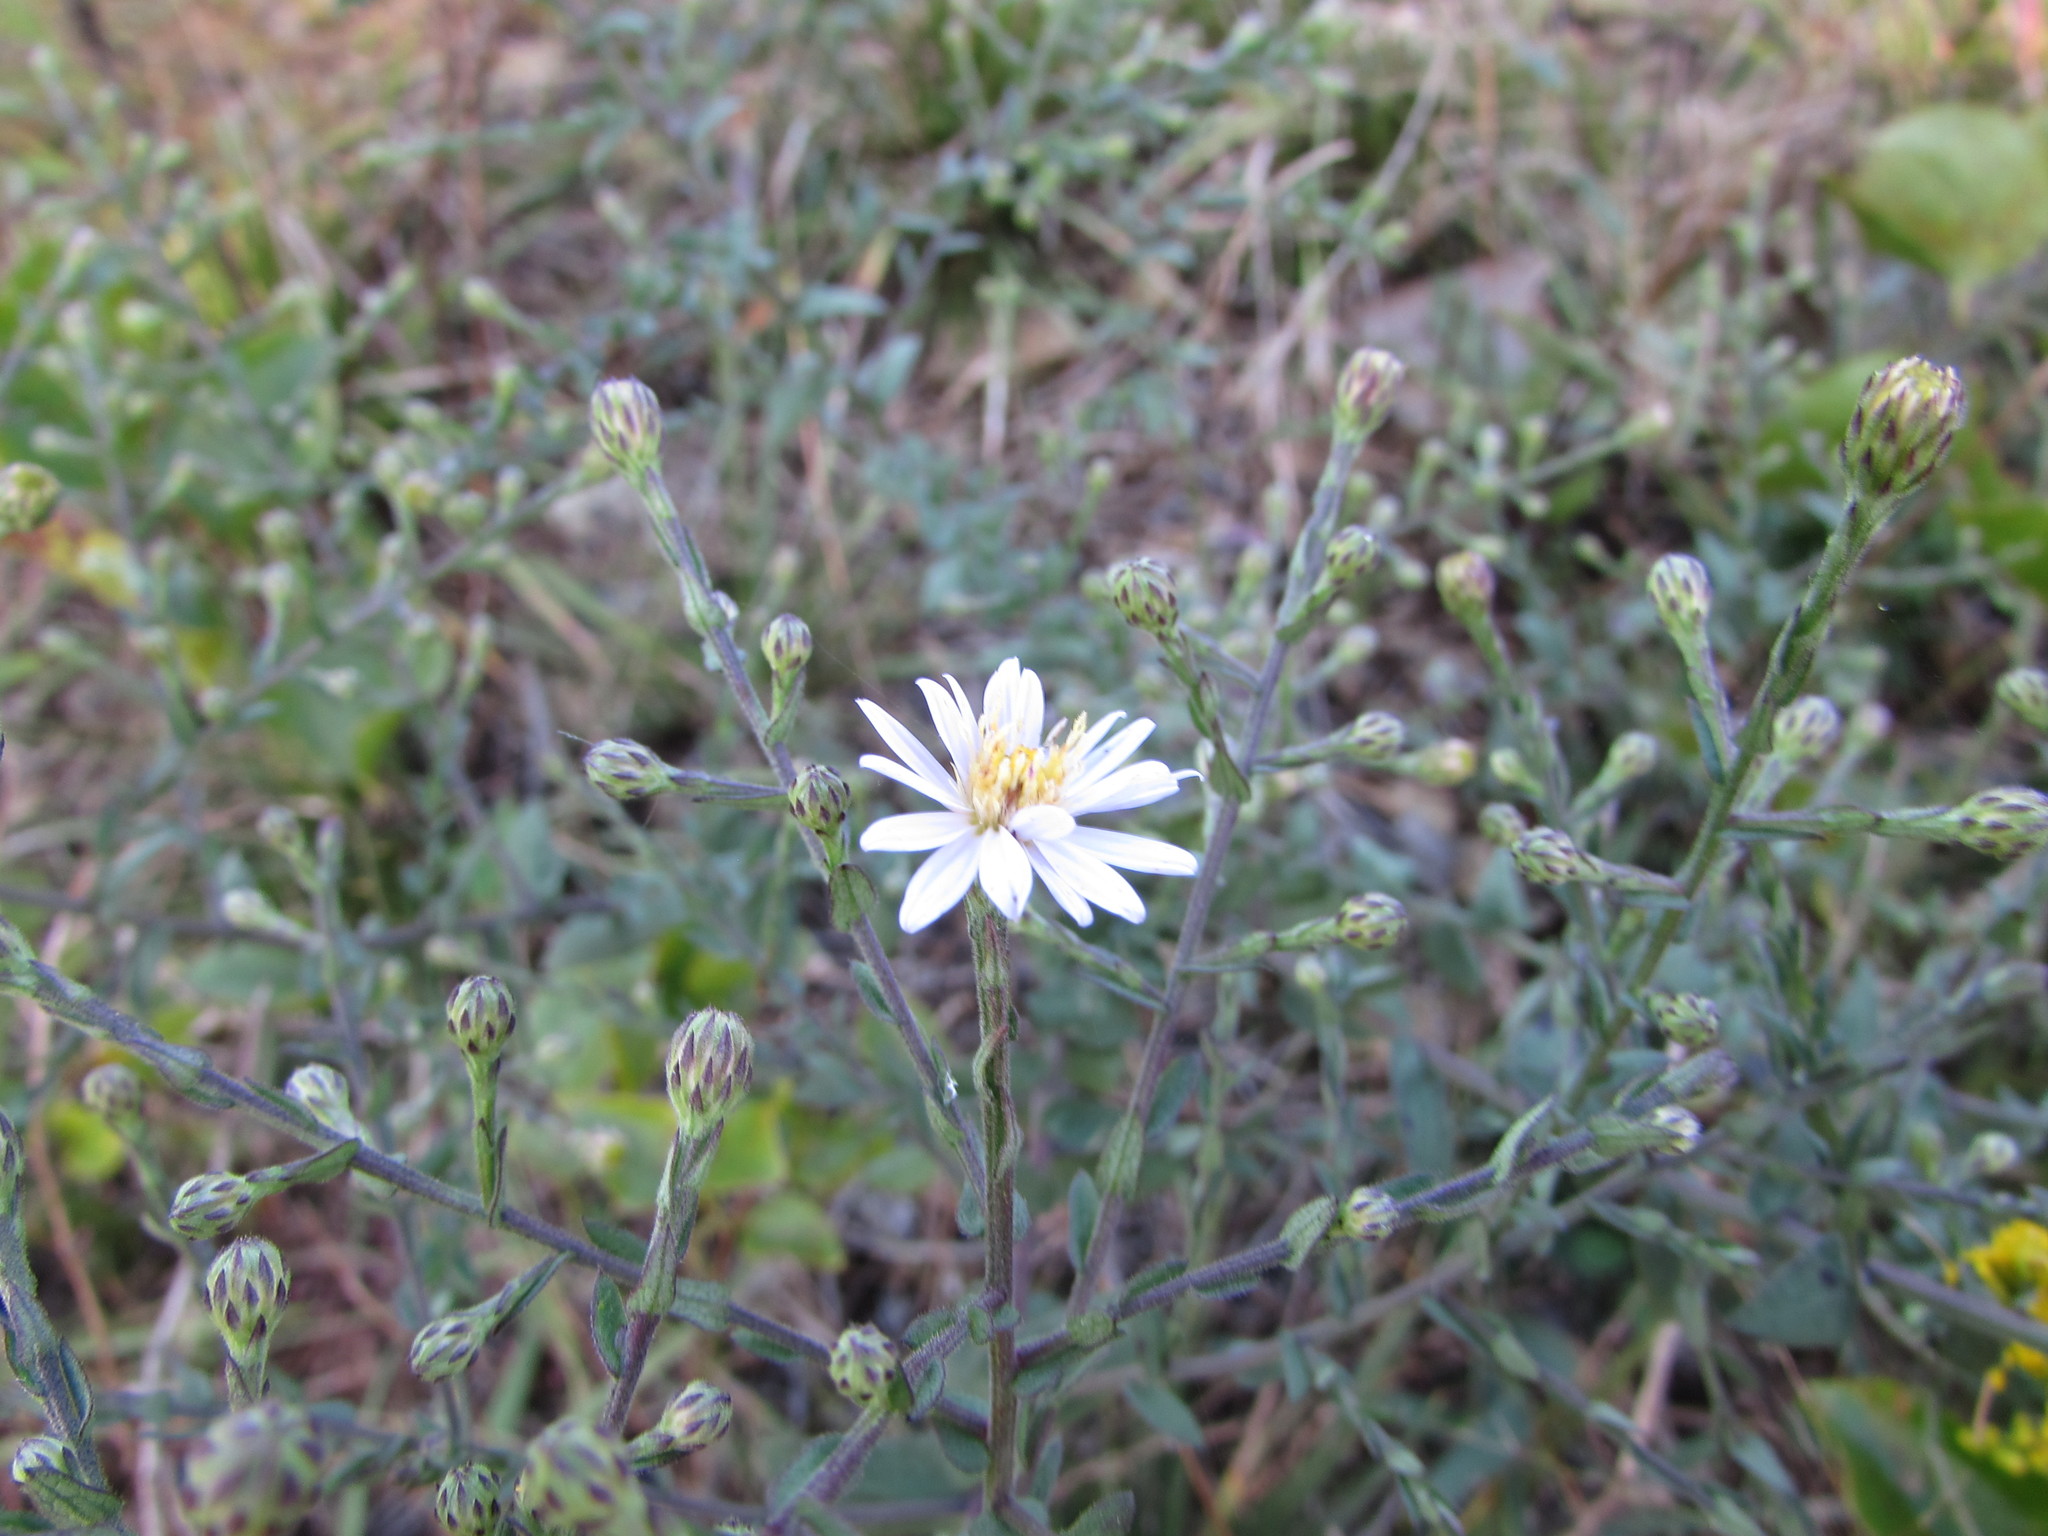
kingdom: Plantae
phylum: Tracheophyta
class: Magnoliopsida
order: Asterales
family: Asteraceae
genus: Symphyotrichum
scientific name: Symphyotrichum undulatum
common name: Clasping heart-leaf aster
